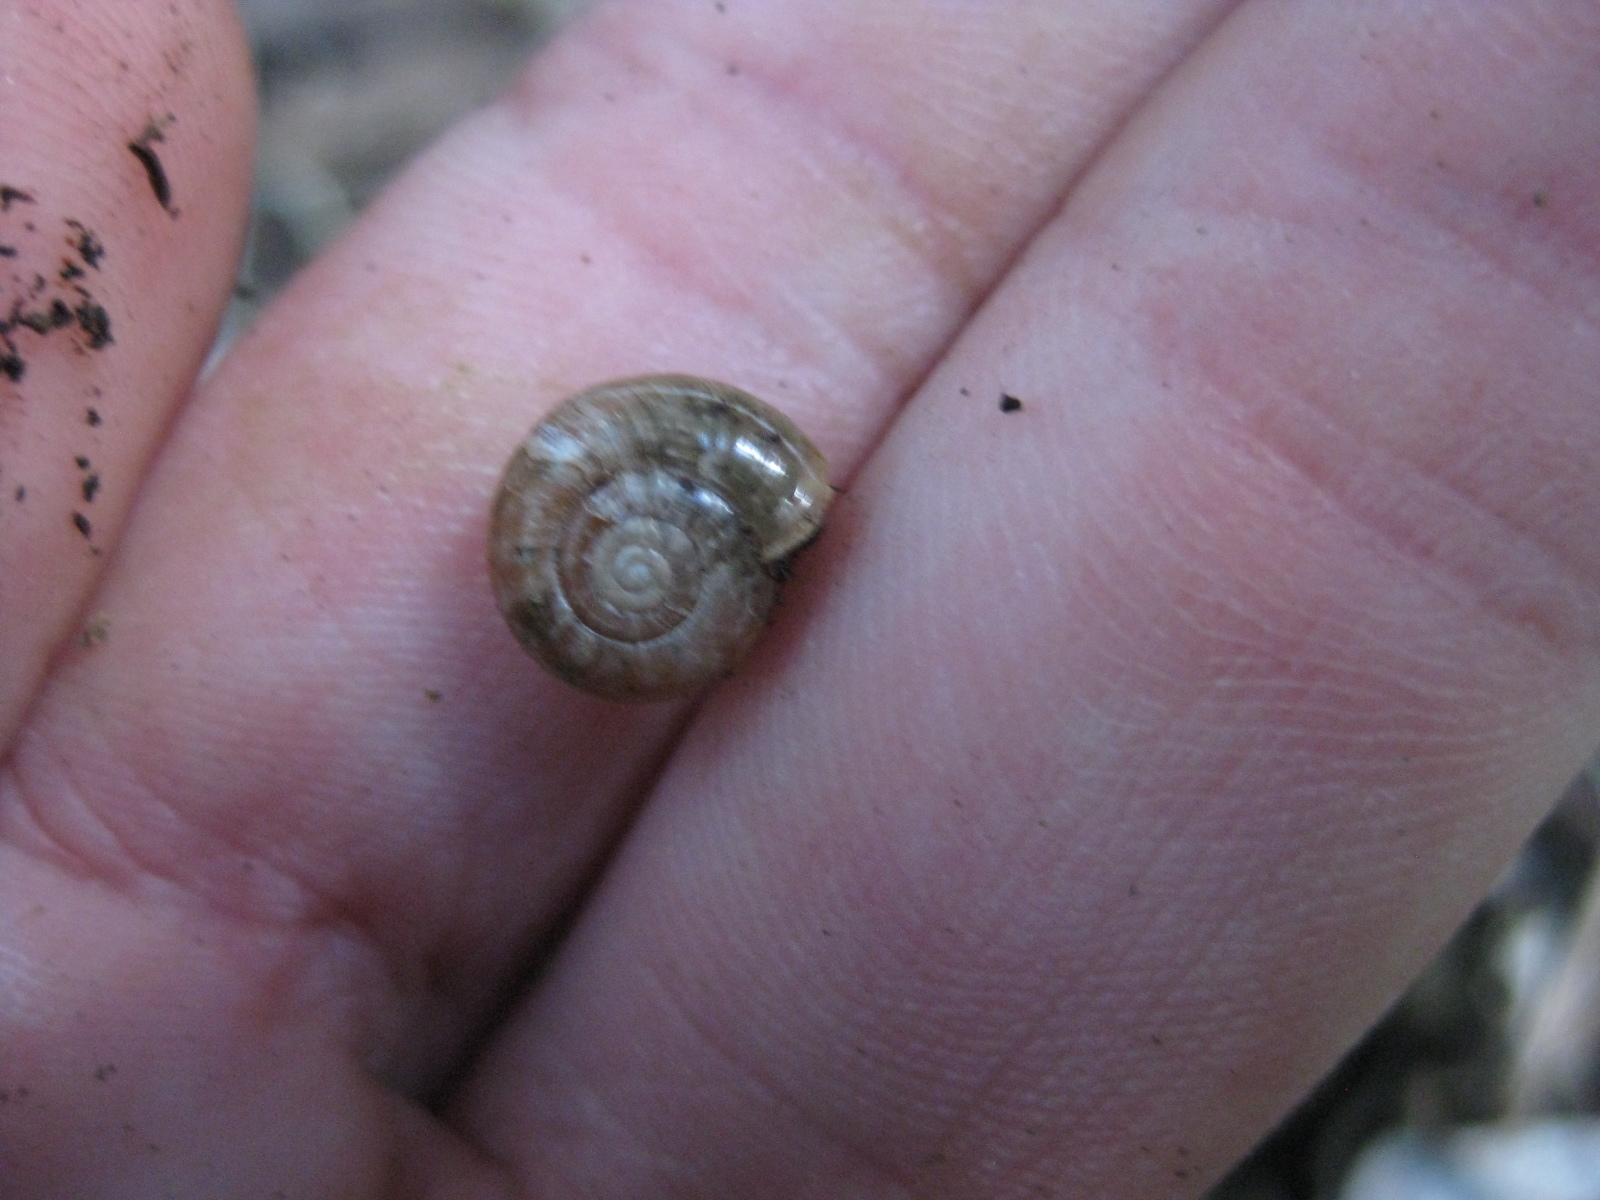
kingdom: Animalia
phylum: Mollusca
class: Gastropoda
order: Stylommatophora
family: Oxychilidae
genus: Oxychilus
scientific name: Oxychilus
